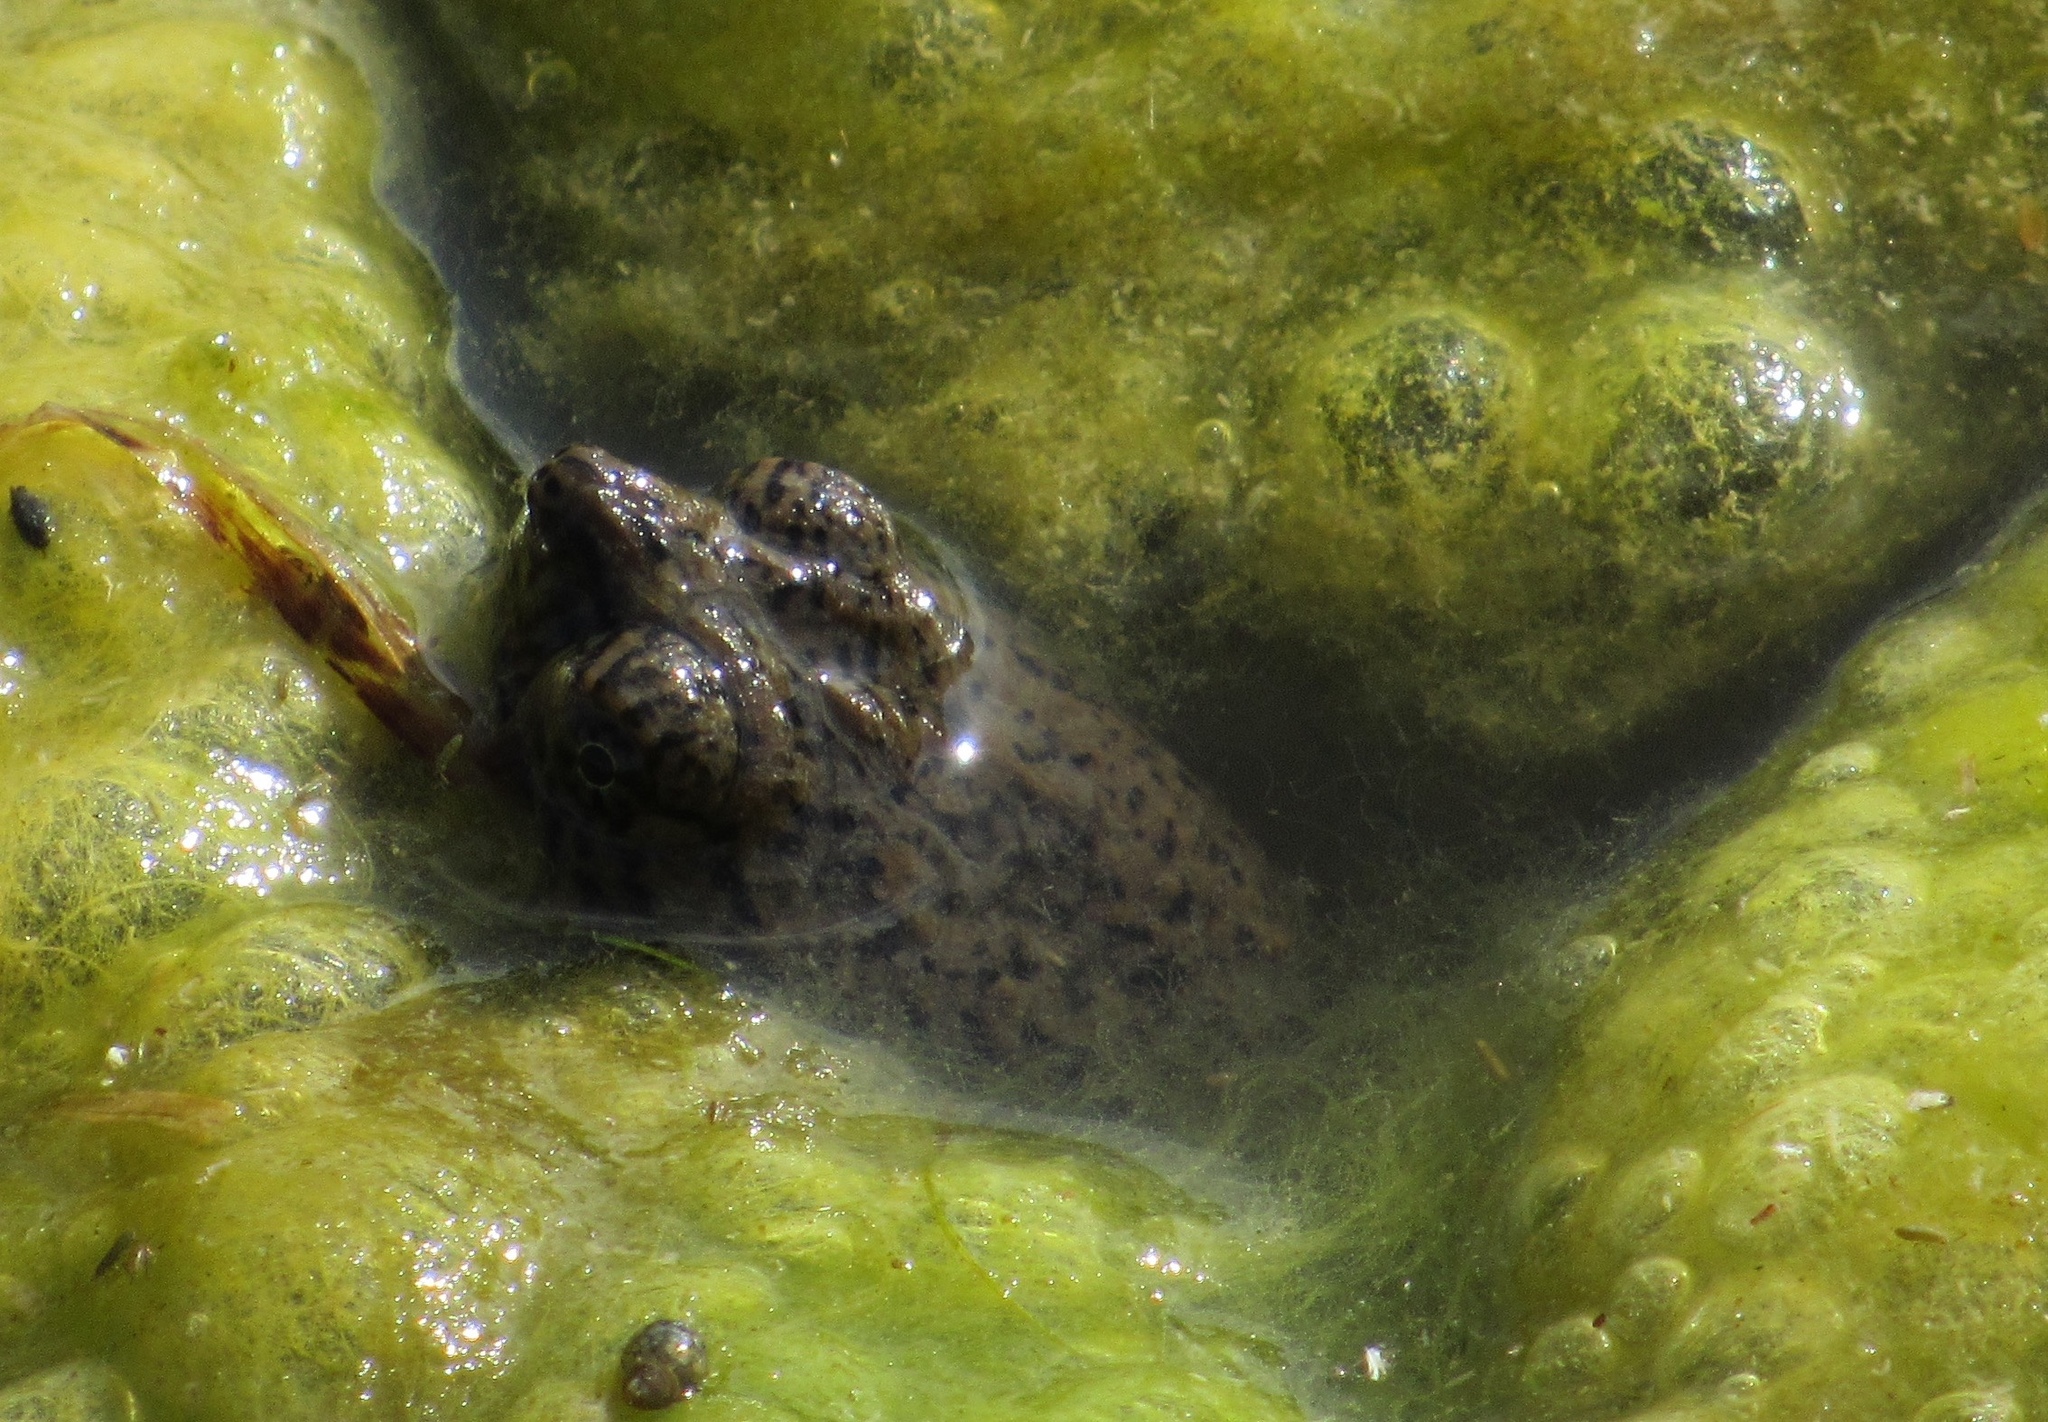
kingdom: Animalia
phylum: Chordata
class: Testudines
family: Chelydridae
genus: Chelydra
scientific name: Chelydra serpentina
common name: Common snapping turtle
